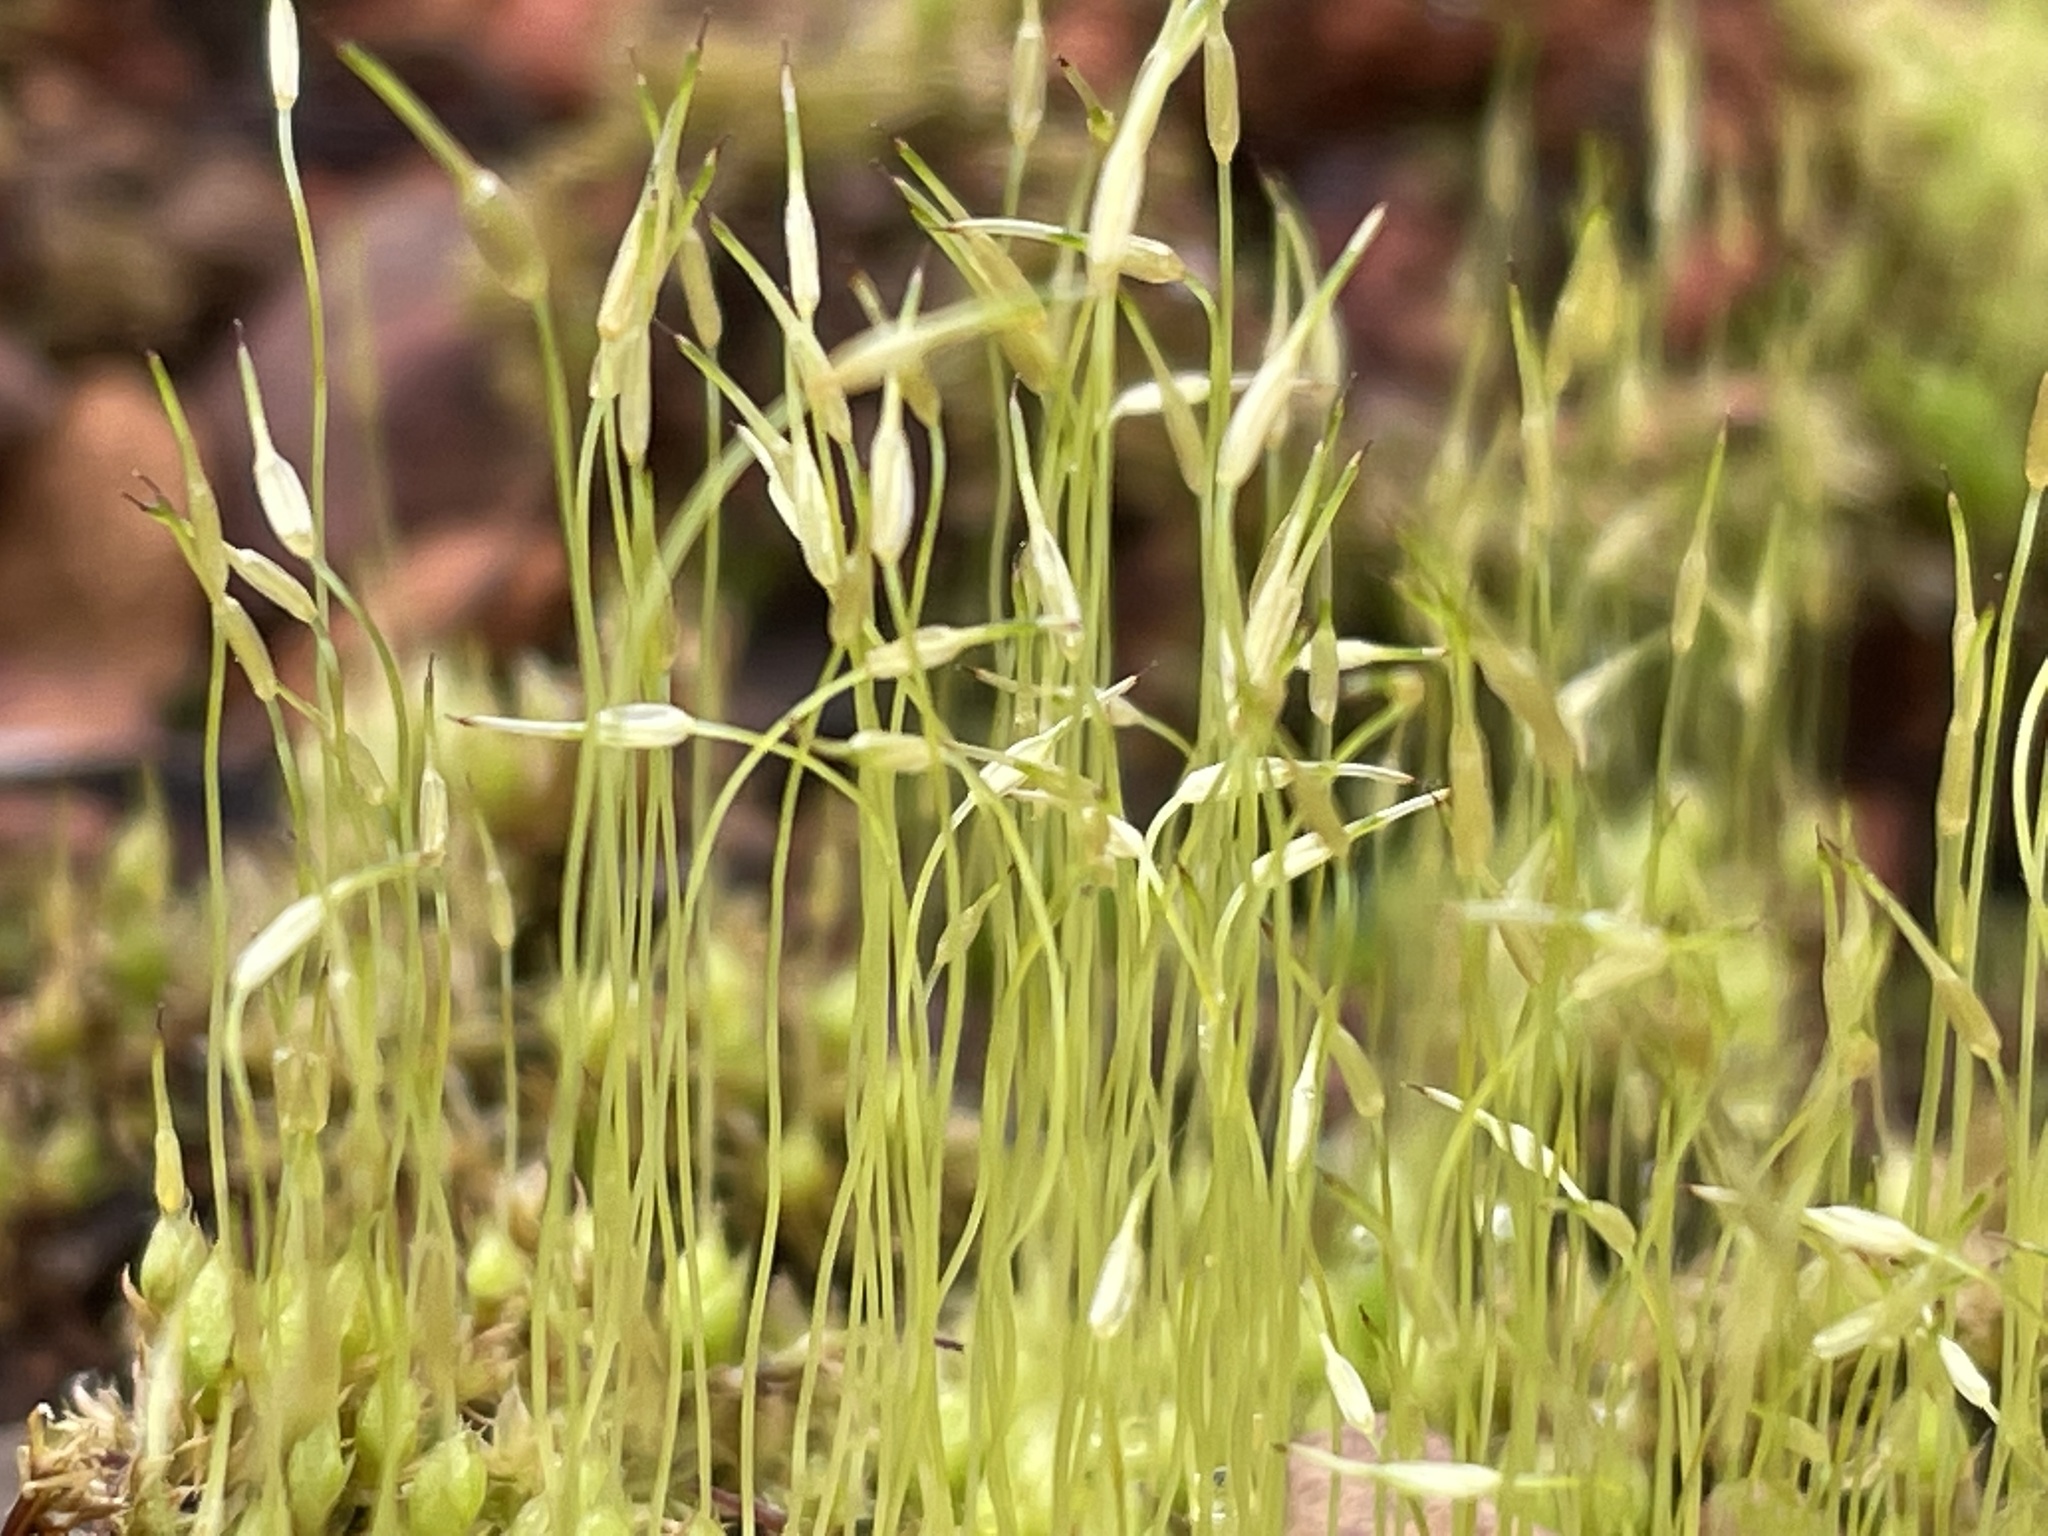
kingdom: Plantae
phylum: Bryophyta
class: Bryopsida
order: Funariales
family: Funariaceae
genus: Funaria
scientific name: Funaria hygrometrica
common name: Common cord moss
